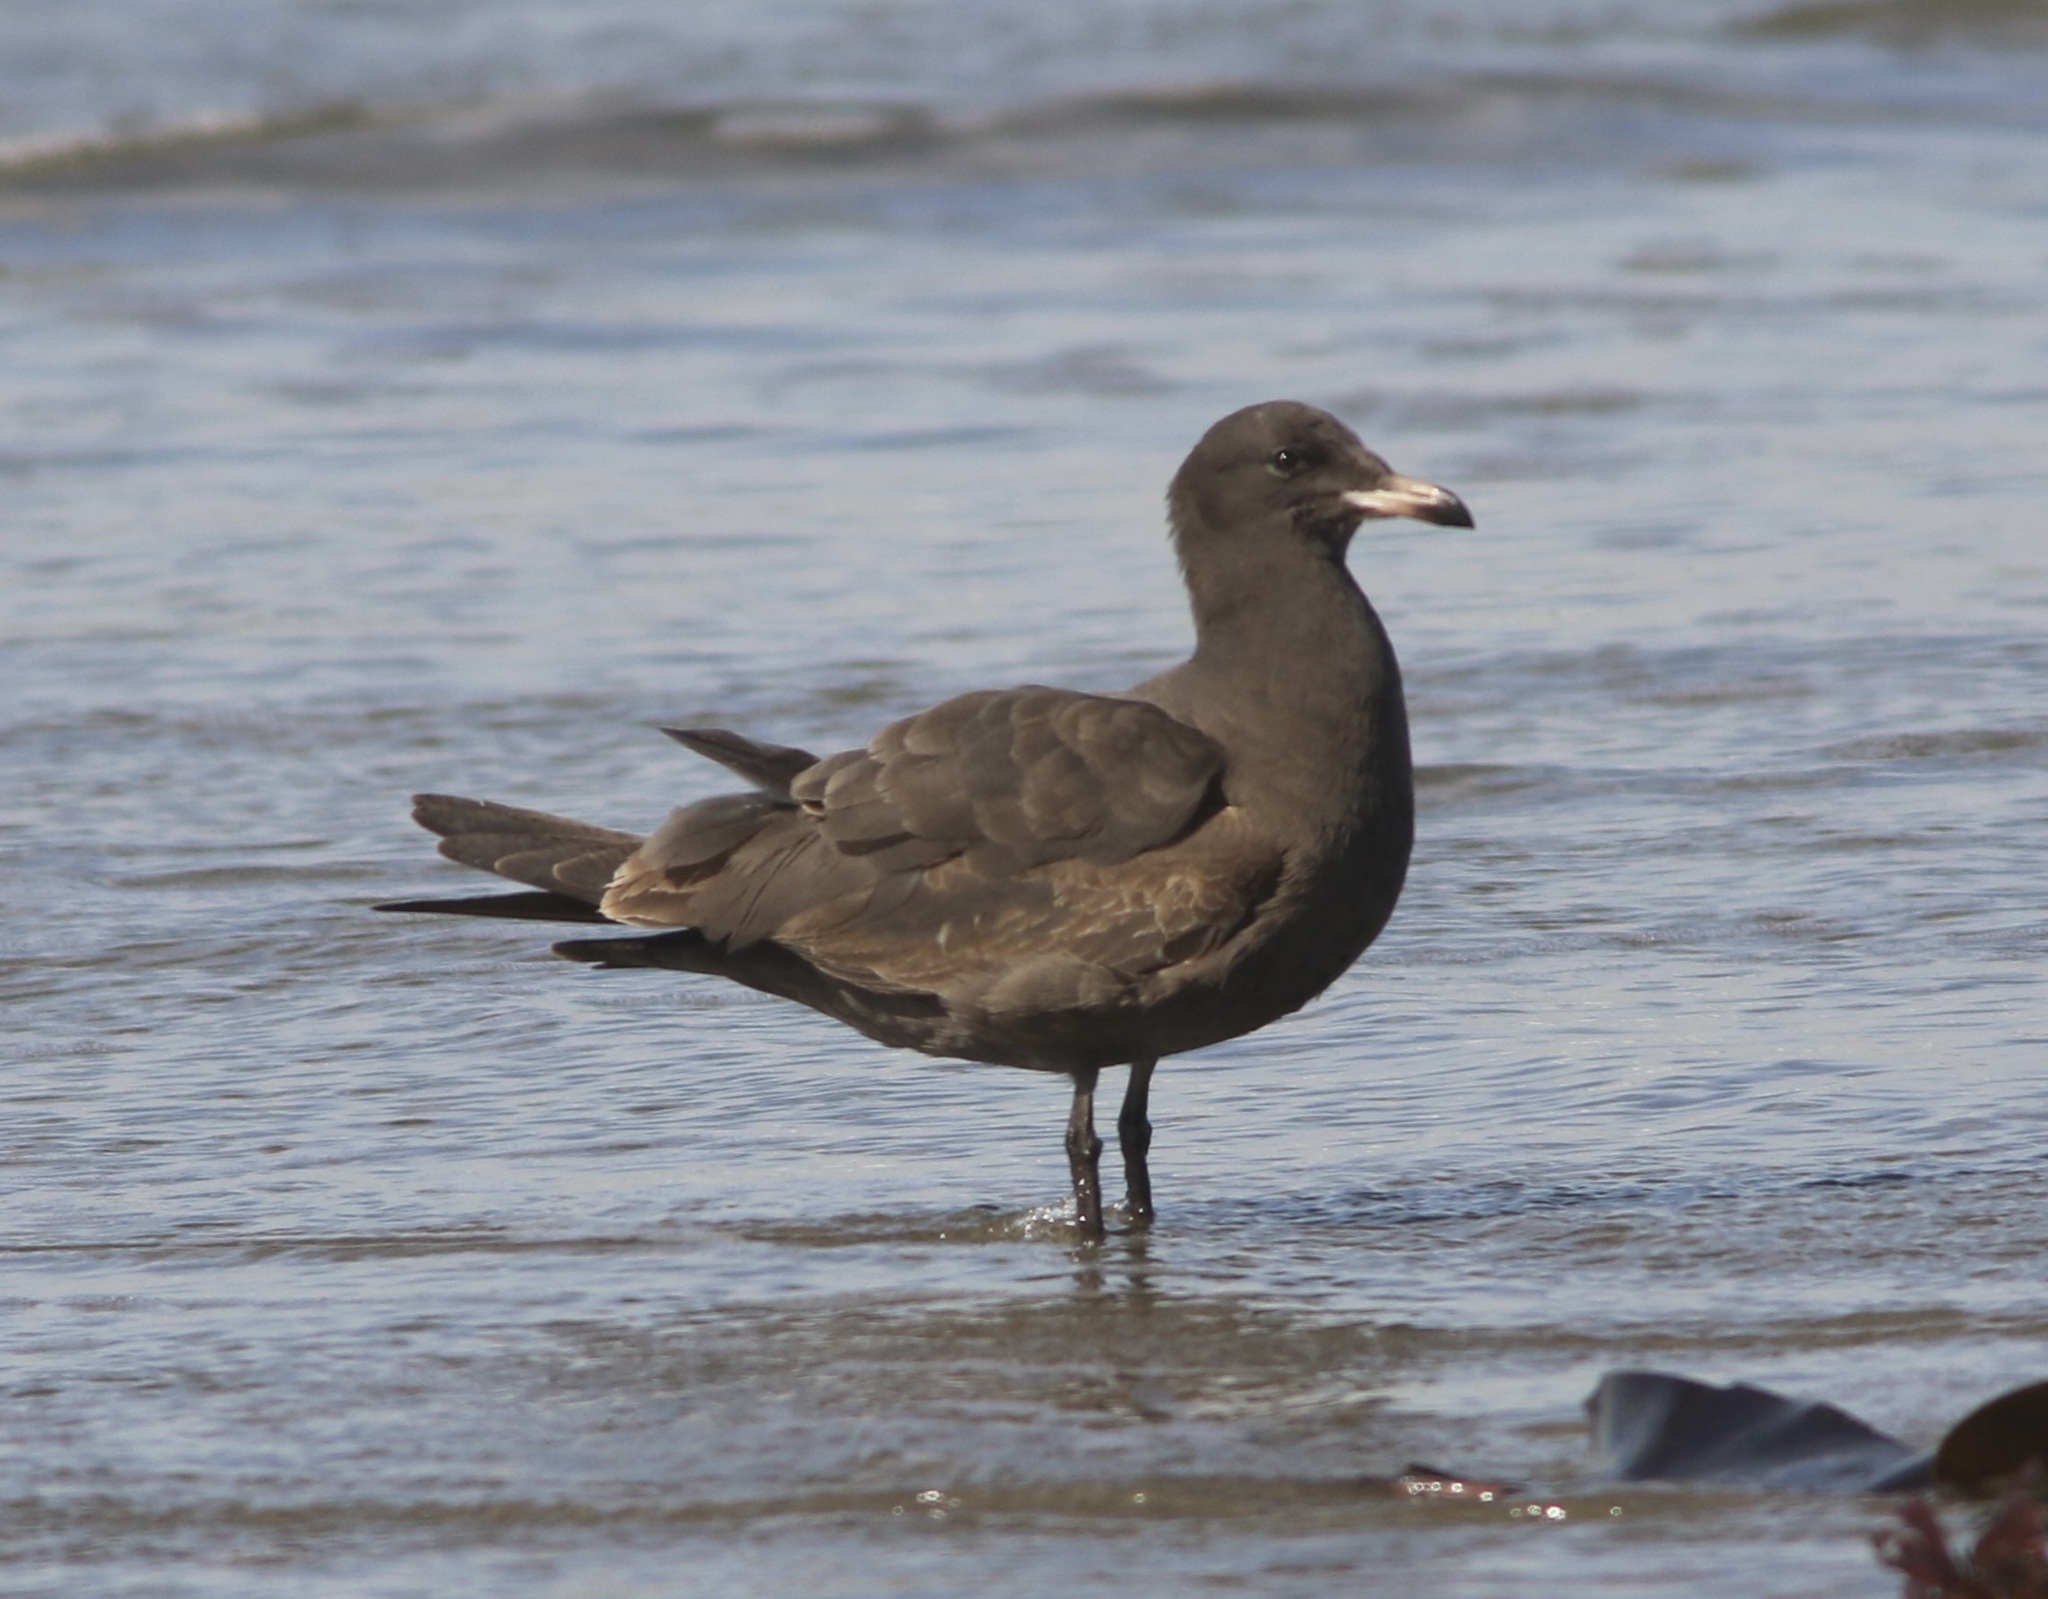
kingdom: Animalia
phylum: Chordata
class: Aves
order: Charadriiformes
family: Laridae
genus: Larus
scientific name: Larus heermanni
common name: Heermann's gull
